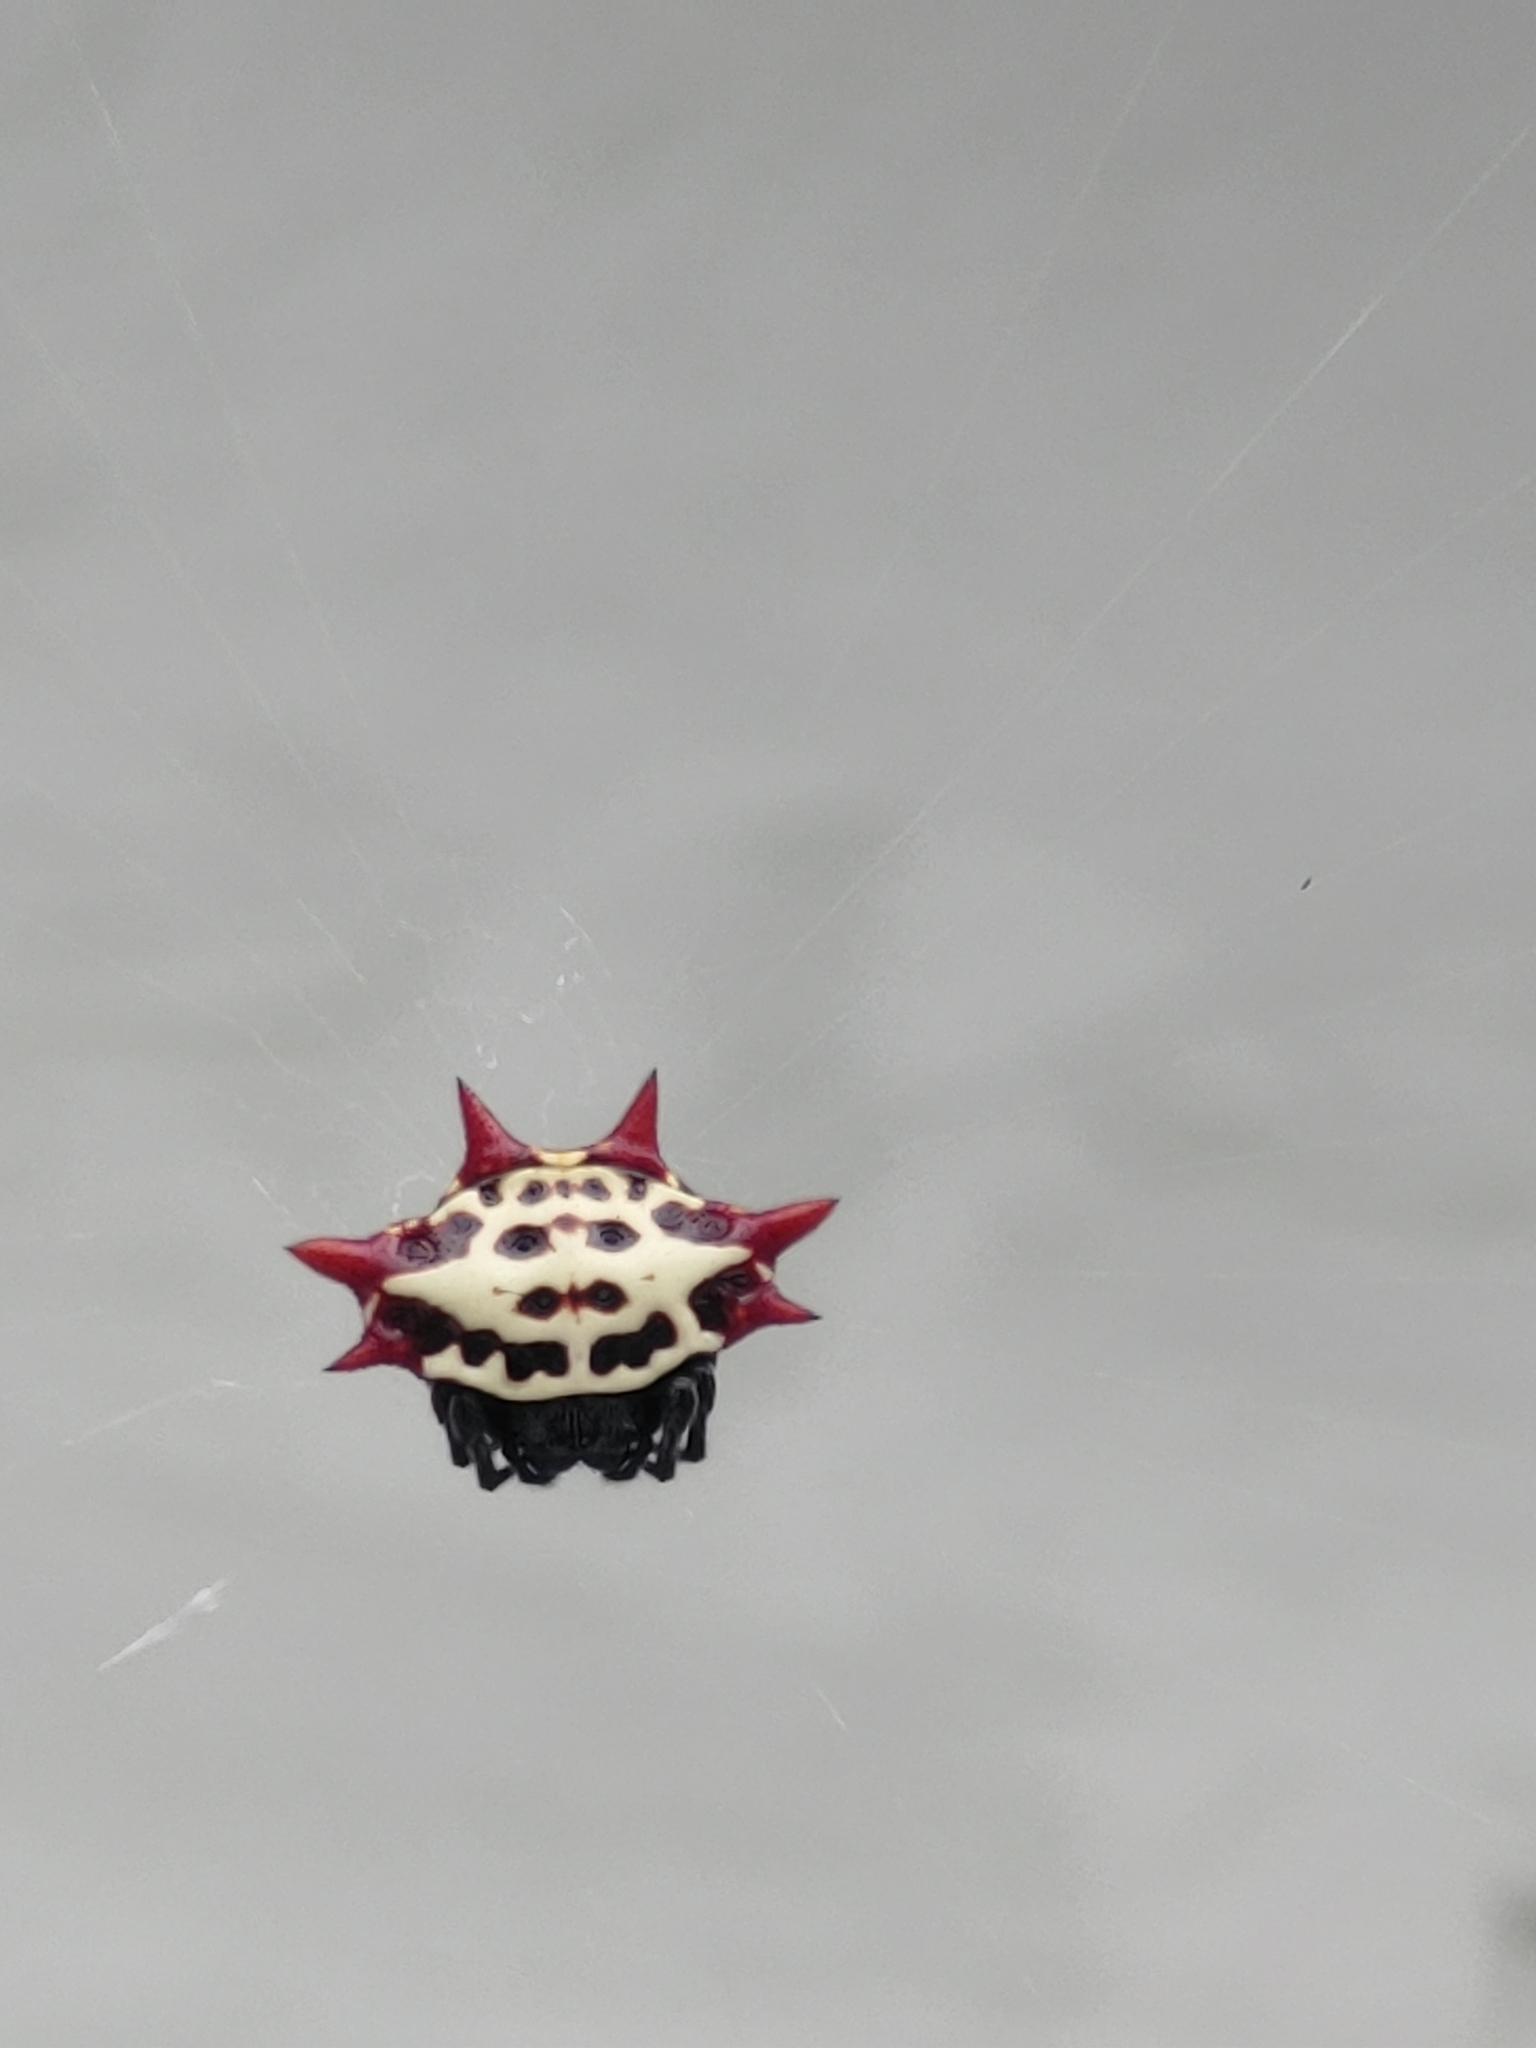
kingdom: Animalia
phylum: Arthropoda
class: Arachnida
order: Araneae
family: Araneidae
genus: Gasteracantha
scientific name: Gasteracantha cancriformis
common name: Orb weavers
